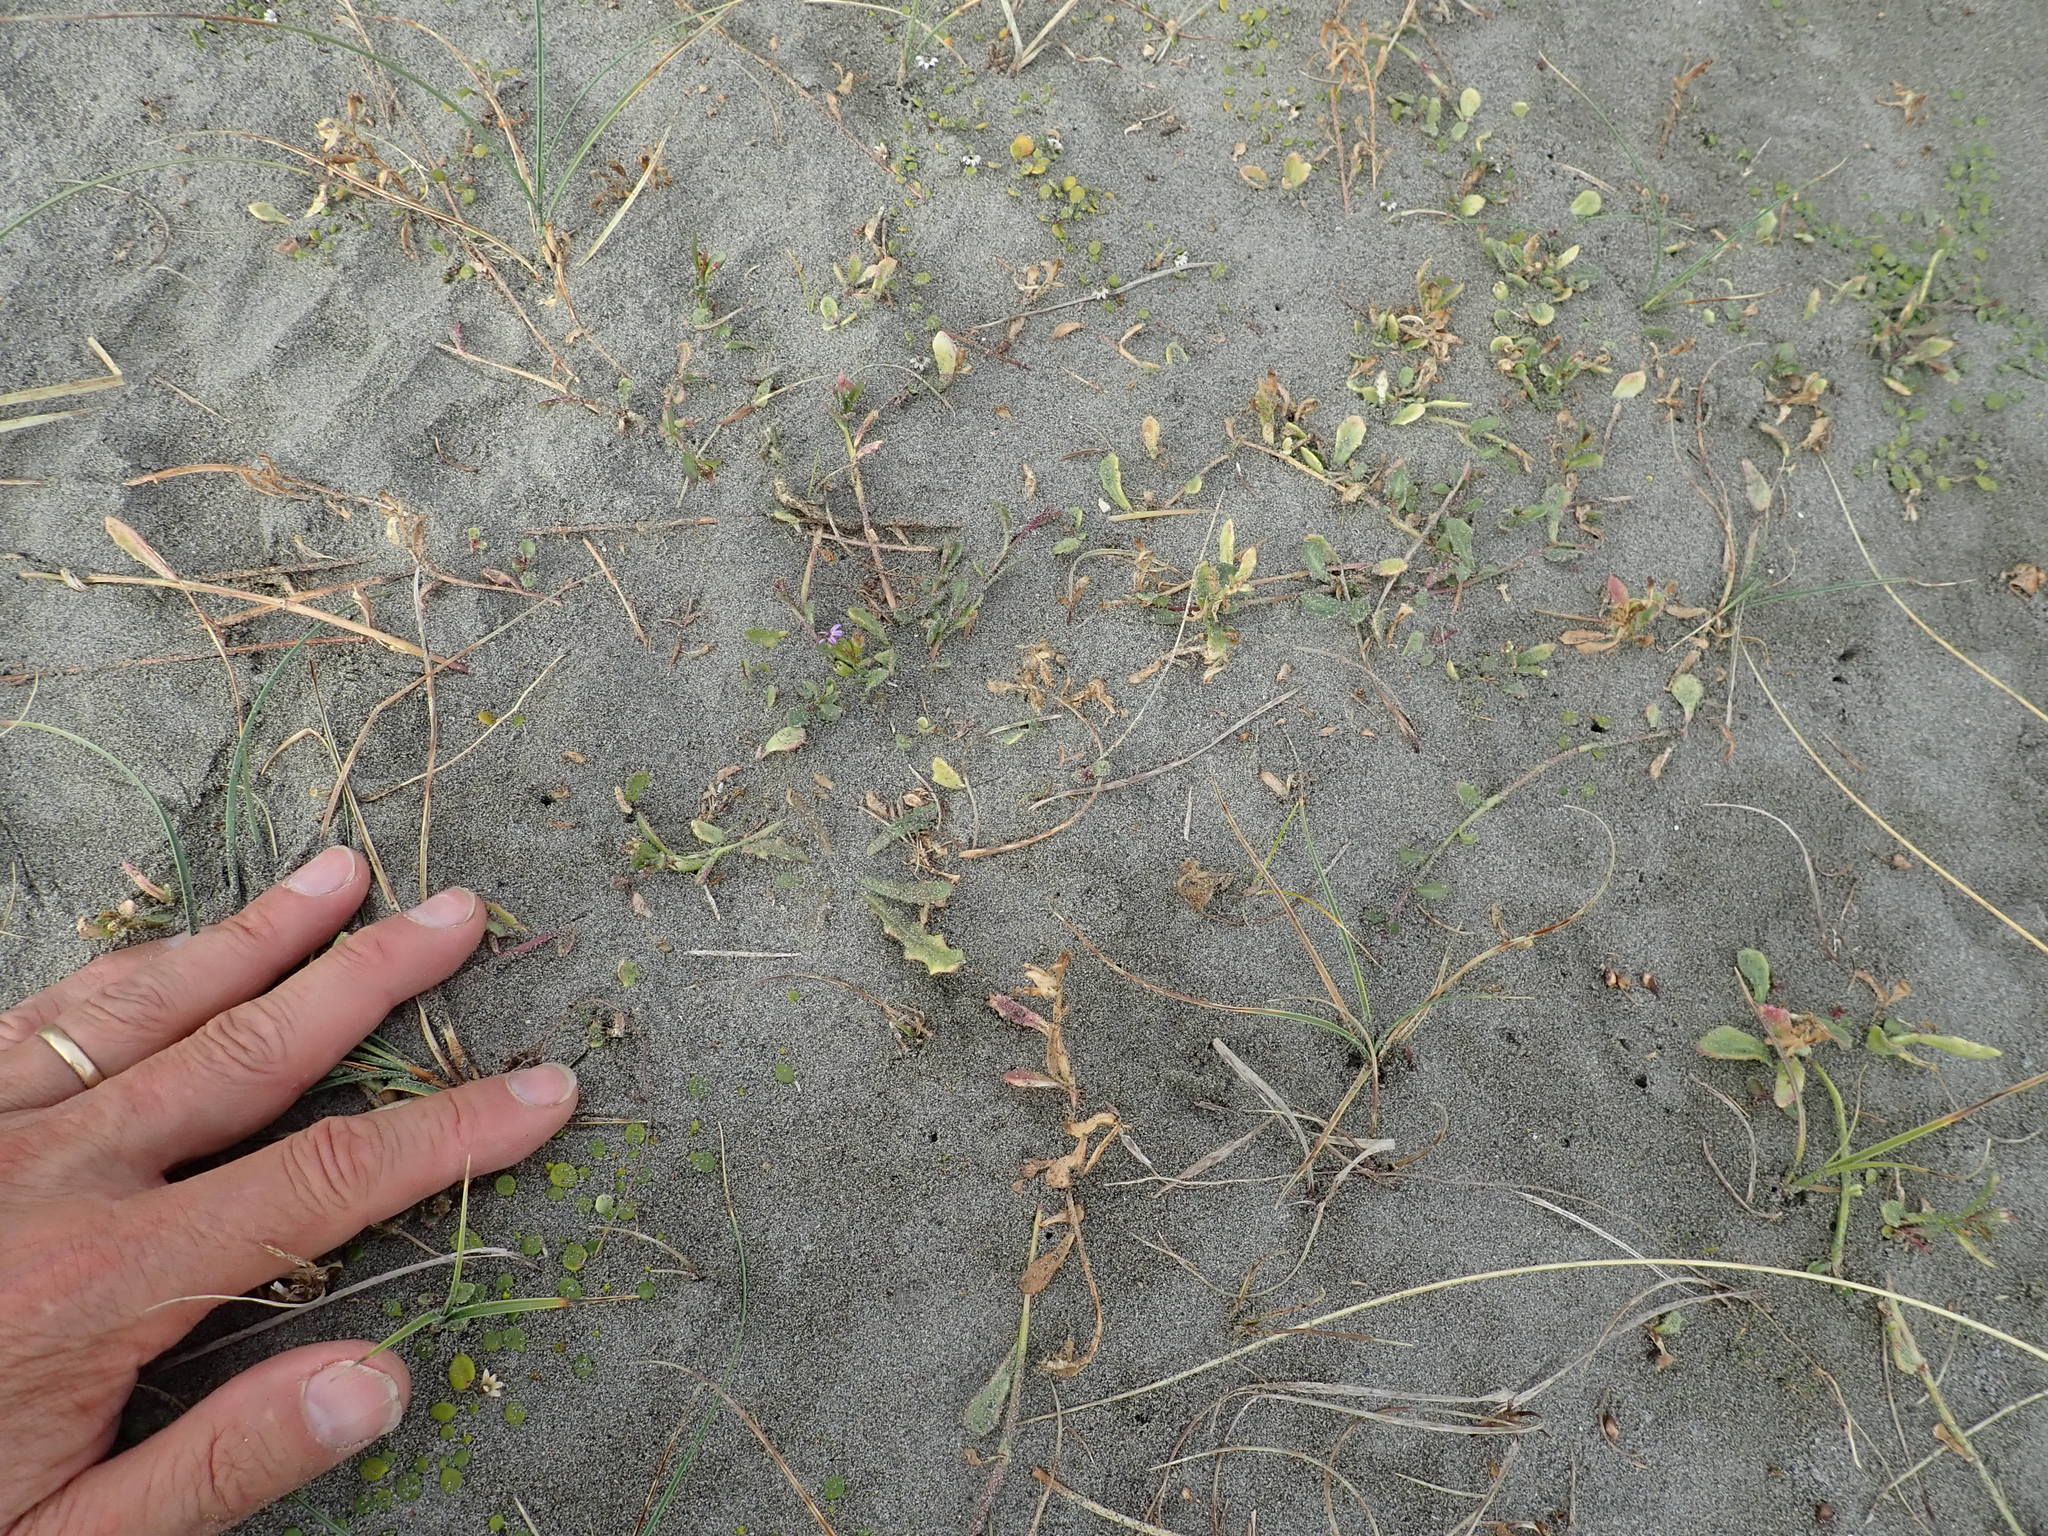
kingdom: Plantae
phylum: Tracheophyta
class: Magnoliopsida
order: Asterales
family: Campanulaceae
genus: Lobelia
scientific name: Lobelia anceps
